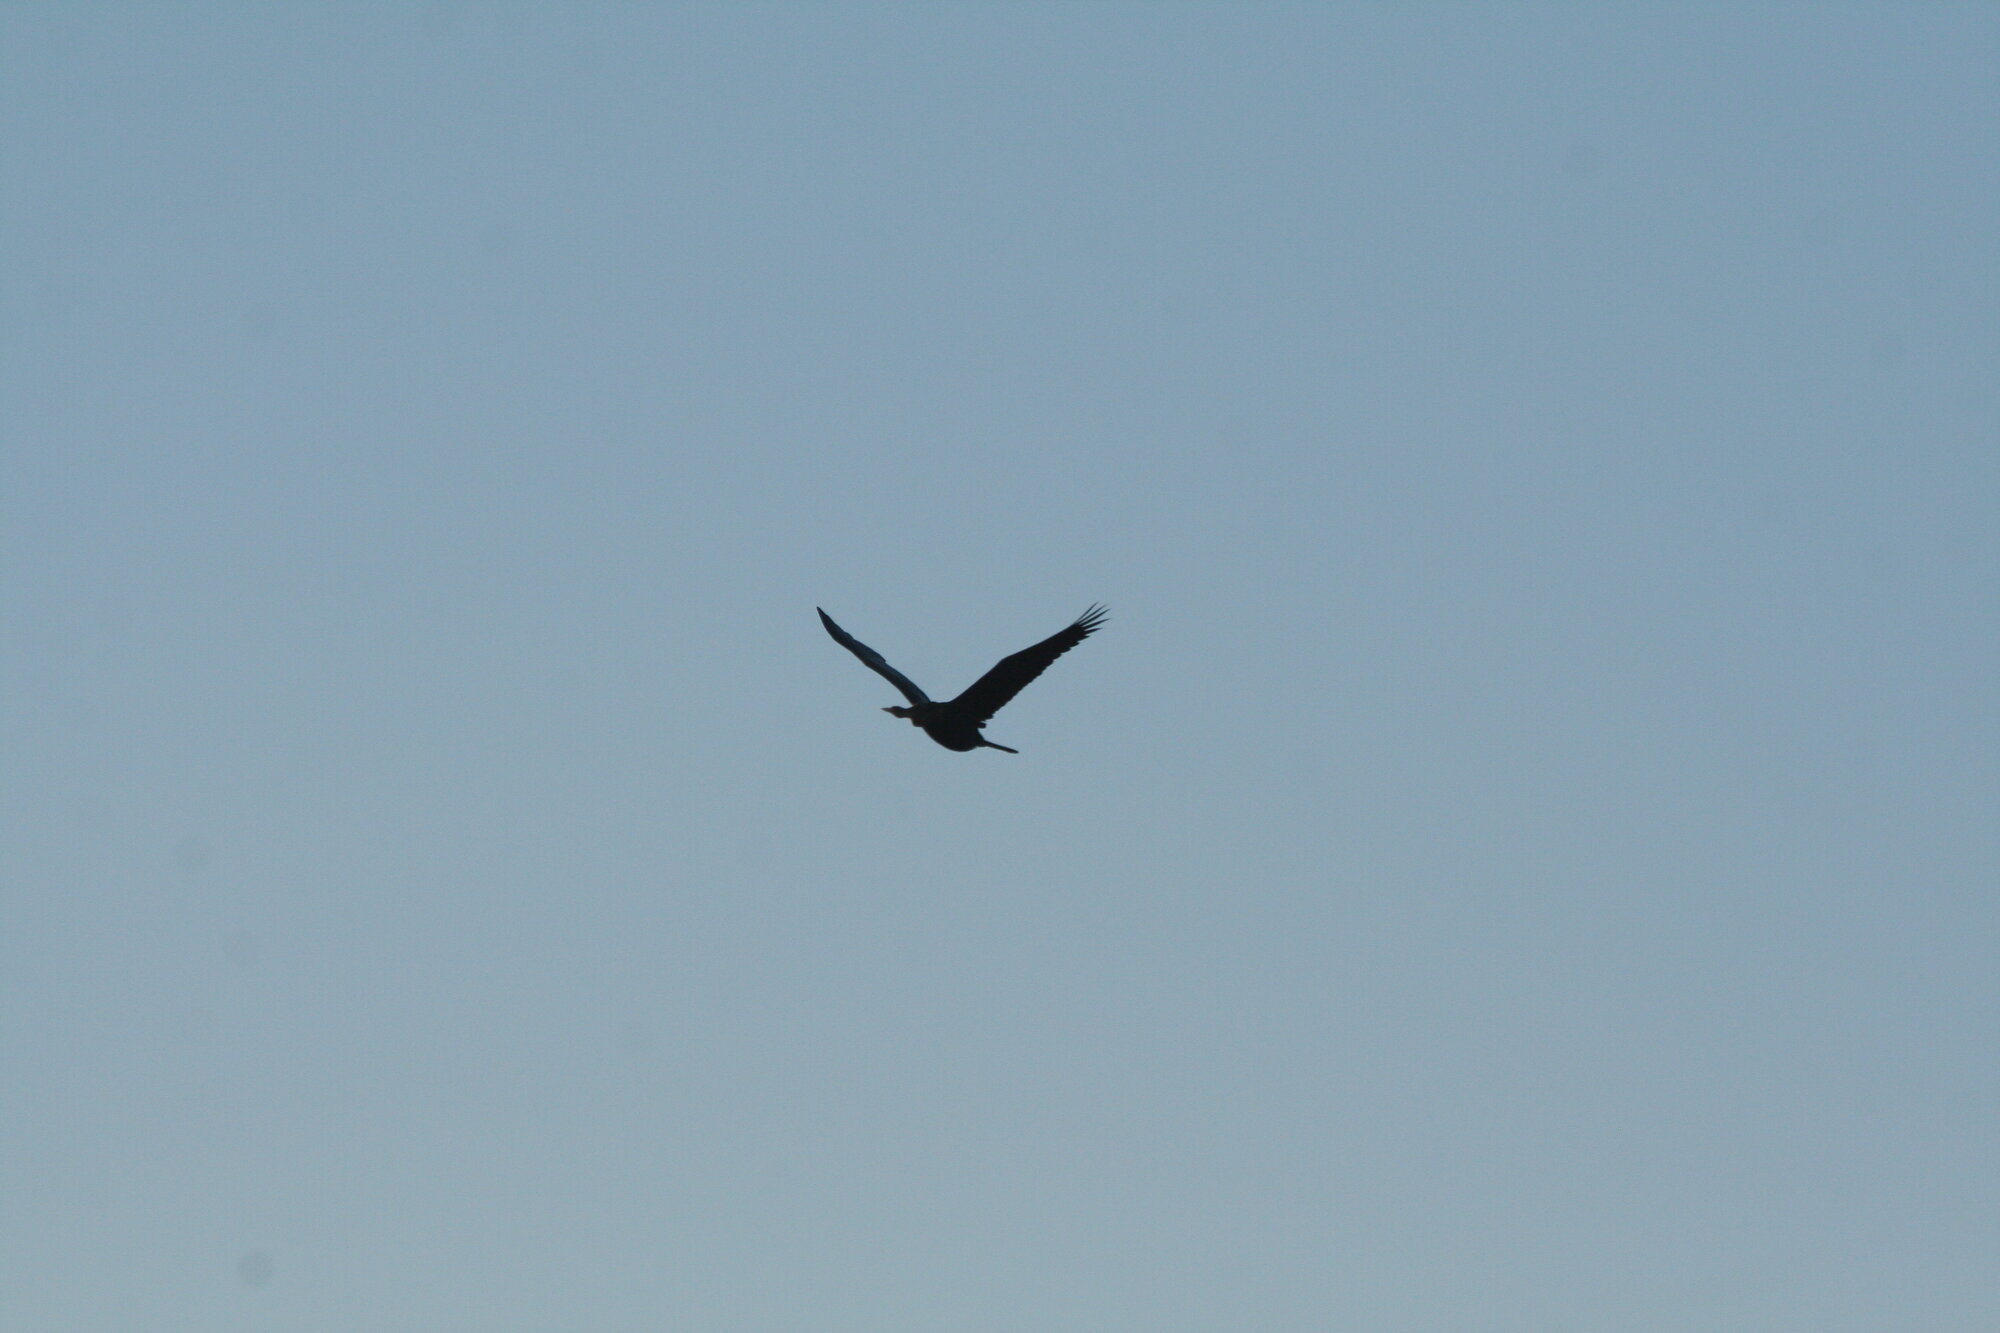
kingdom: Animalia
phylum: Chordata
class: Aves
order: Suliformes
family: Anhingidae
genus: Anhinga
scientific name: Anhinga rufa
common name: African darter
